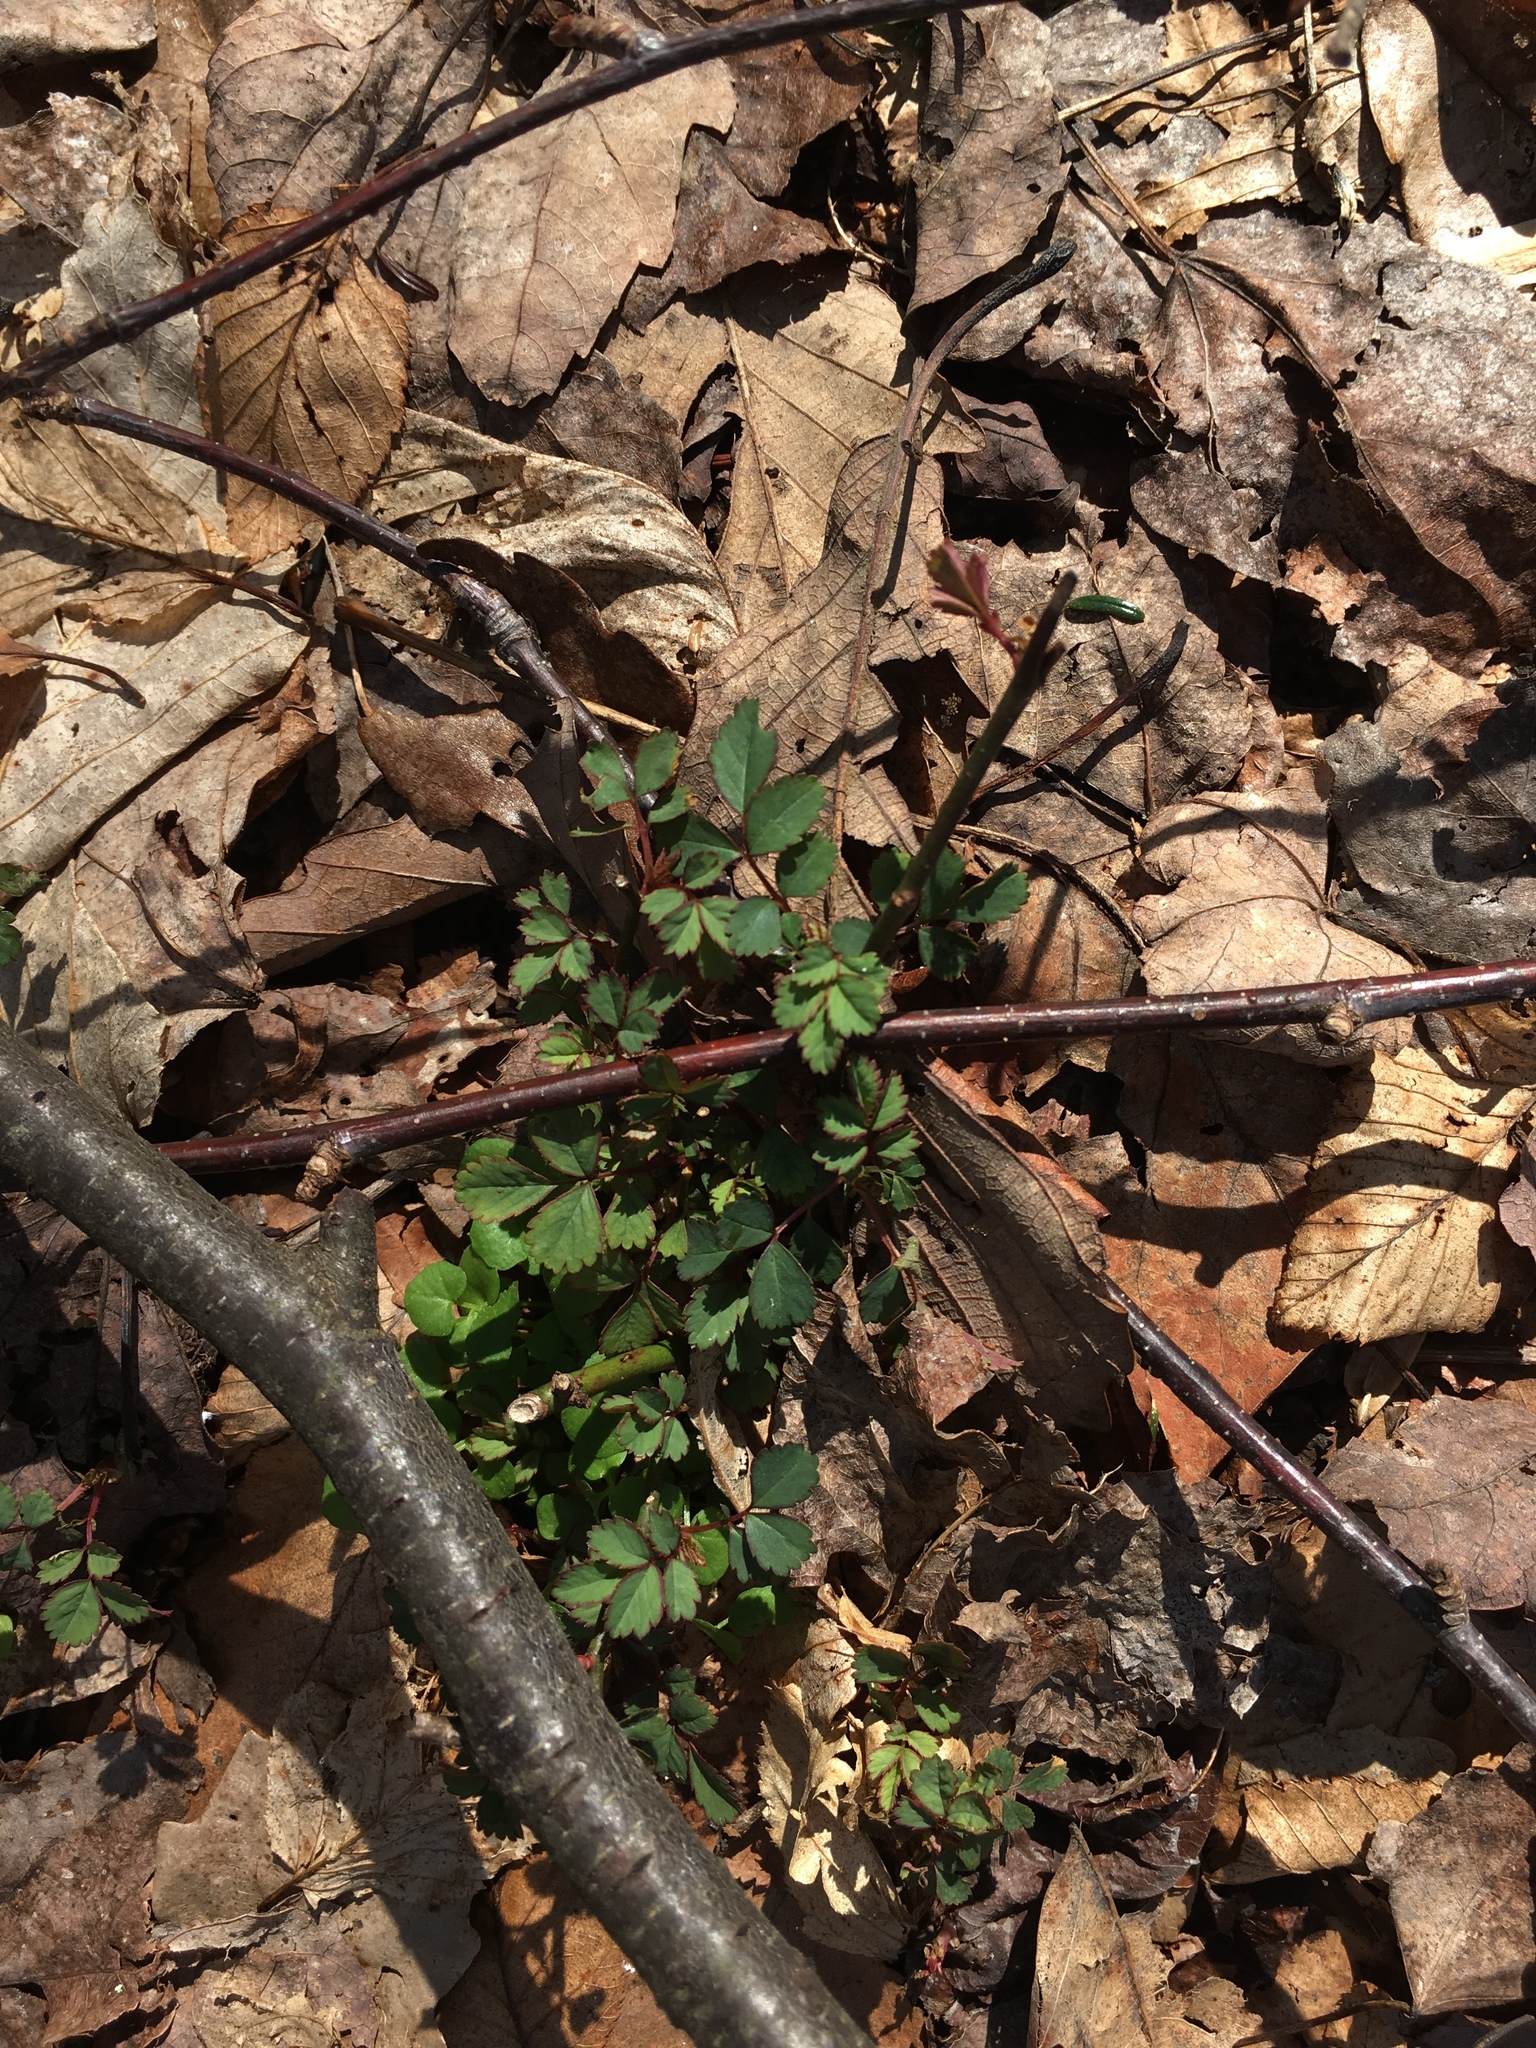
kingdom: Plantae
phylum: Tracheophyta
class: Magnoliopsida
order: Rosales
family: Rosaceae
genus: Rosa
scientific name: Rosa multiflora
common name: Multiflora rose
